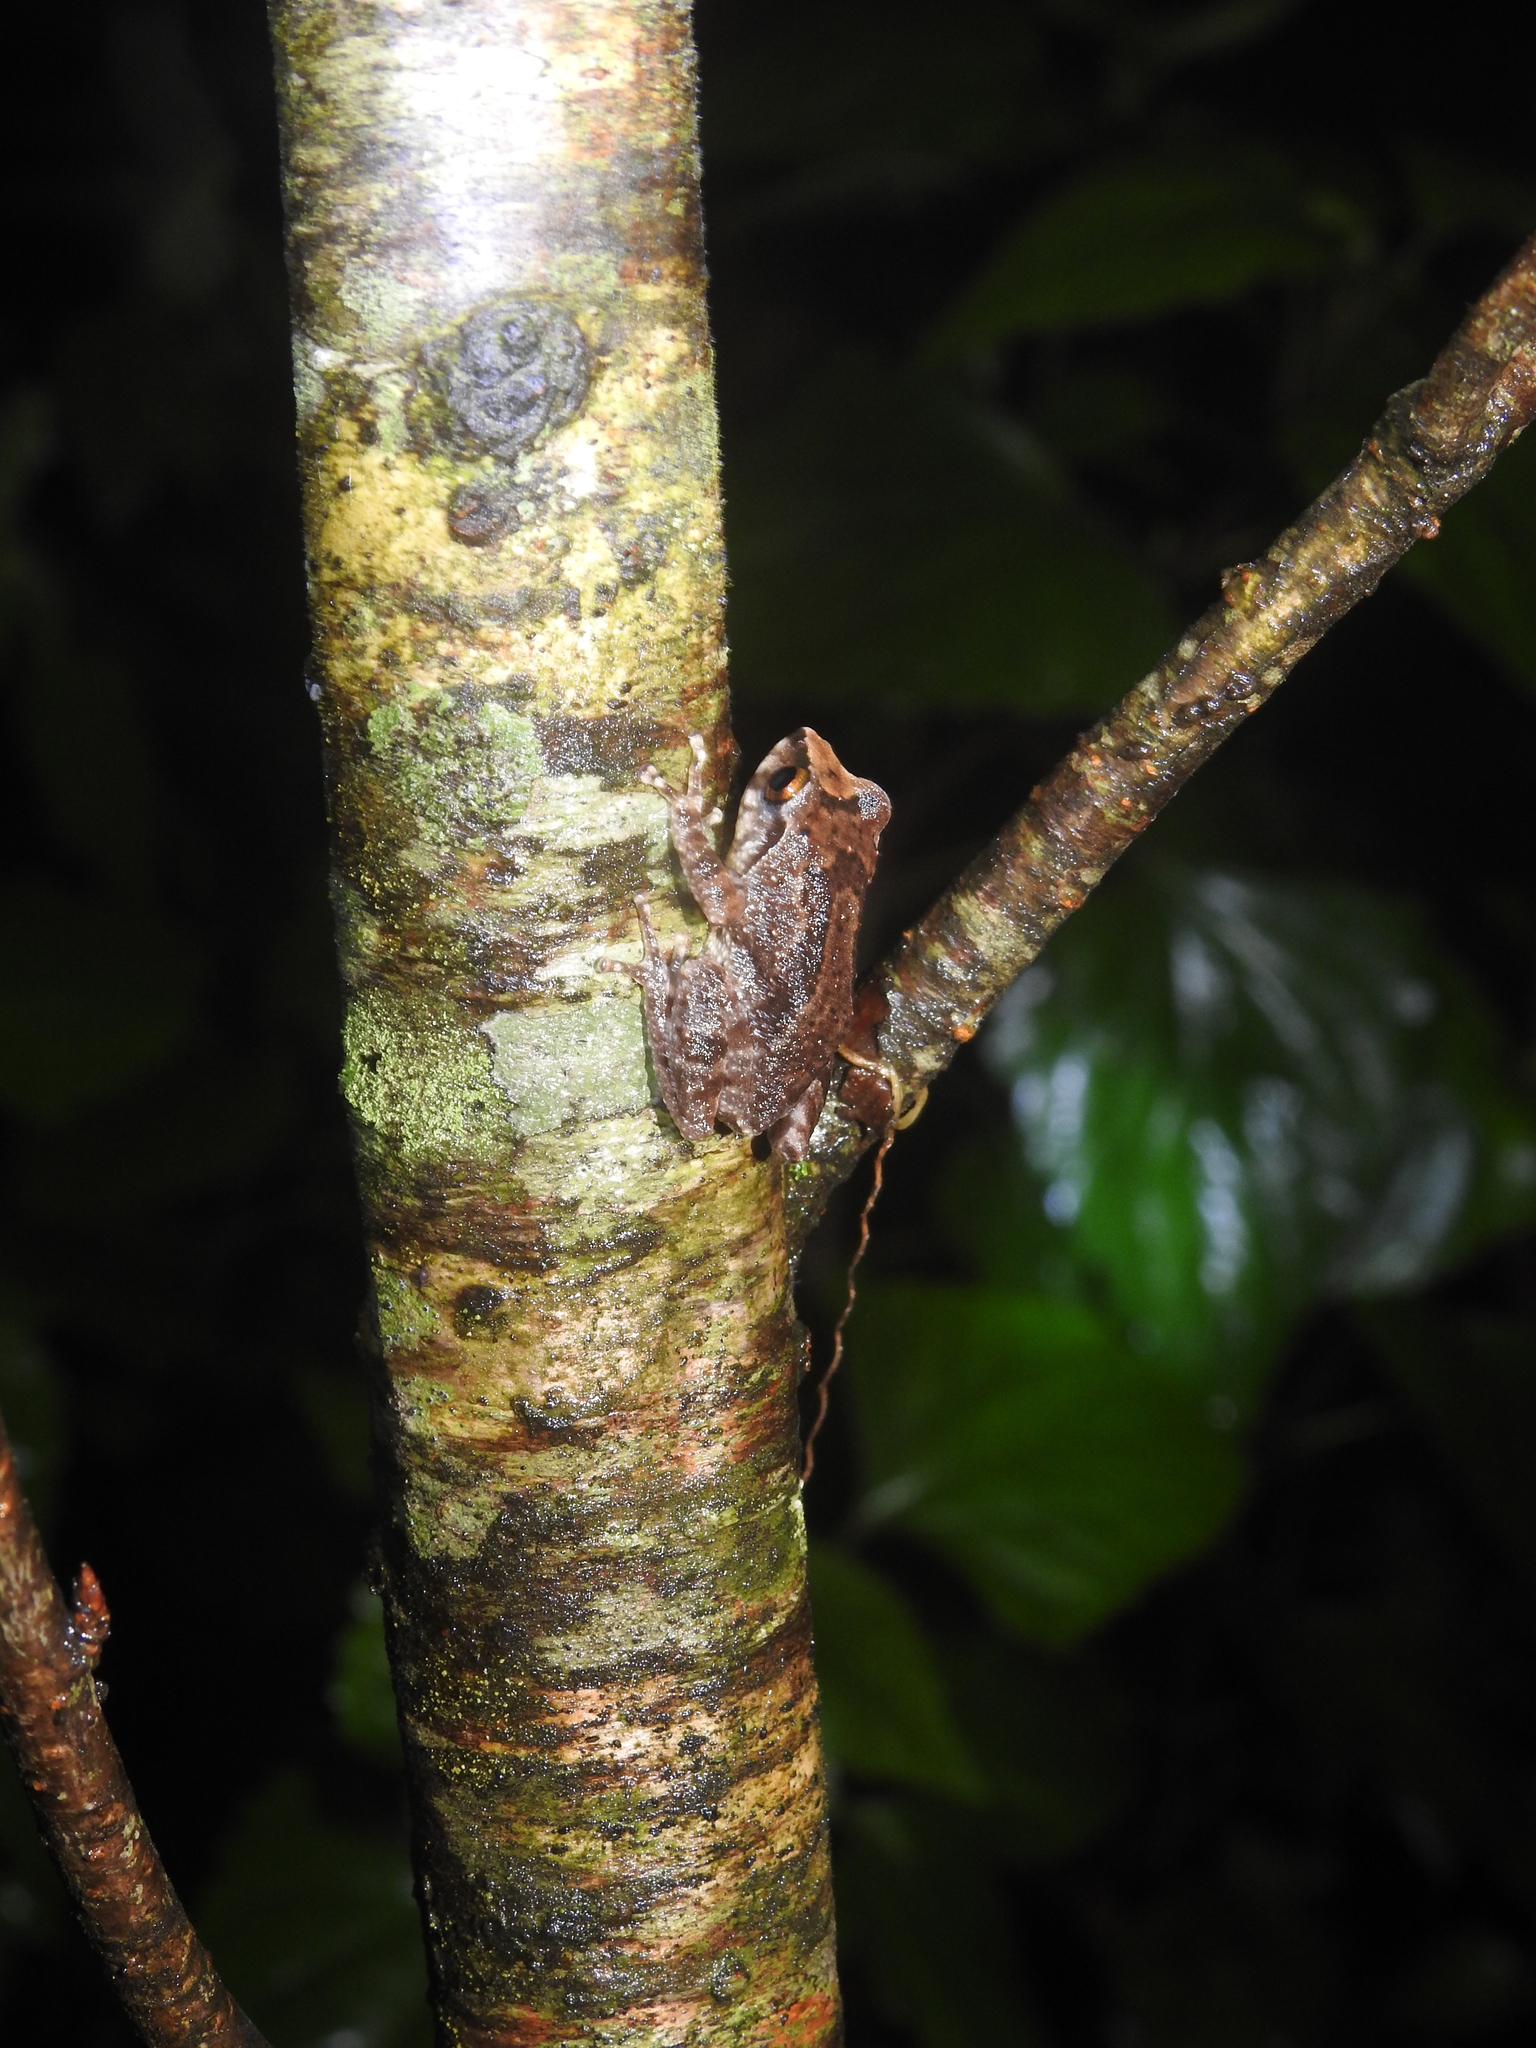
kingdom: Animalia
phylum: Chordata
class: Amphibia
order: Anura
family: Rhacophoridae
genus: Raorchestes
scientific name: Raorchestes dubois
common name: Koadaikanal bush frog
